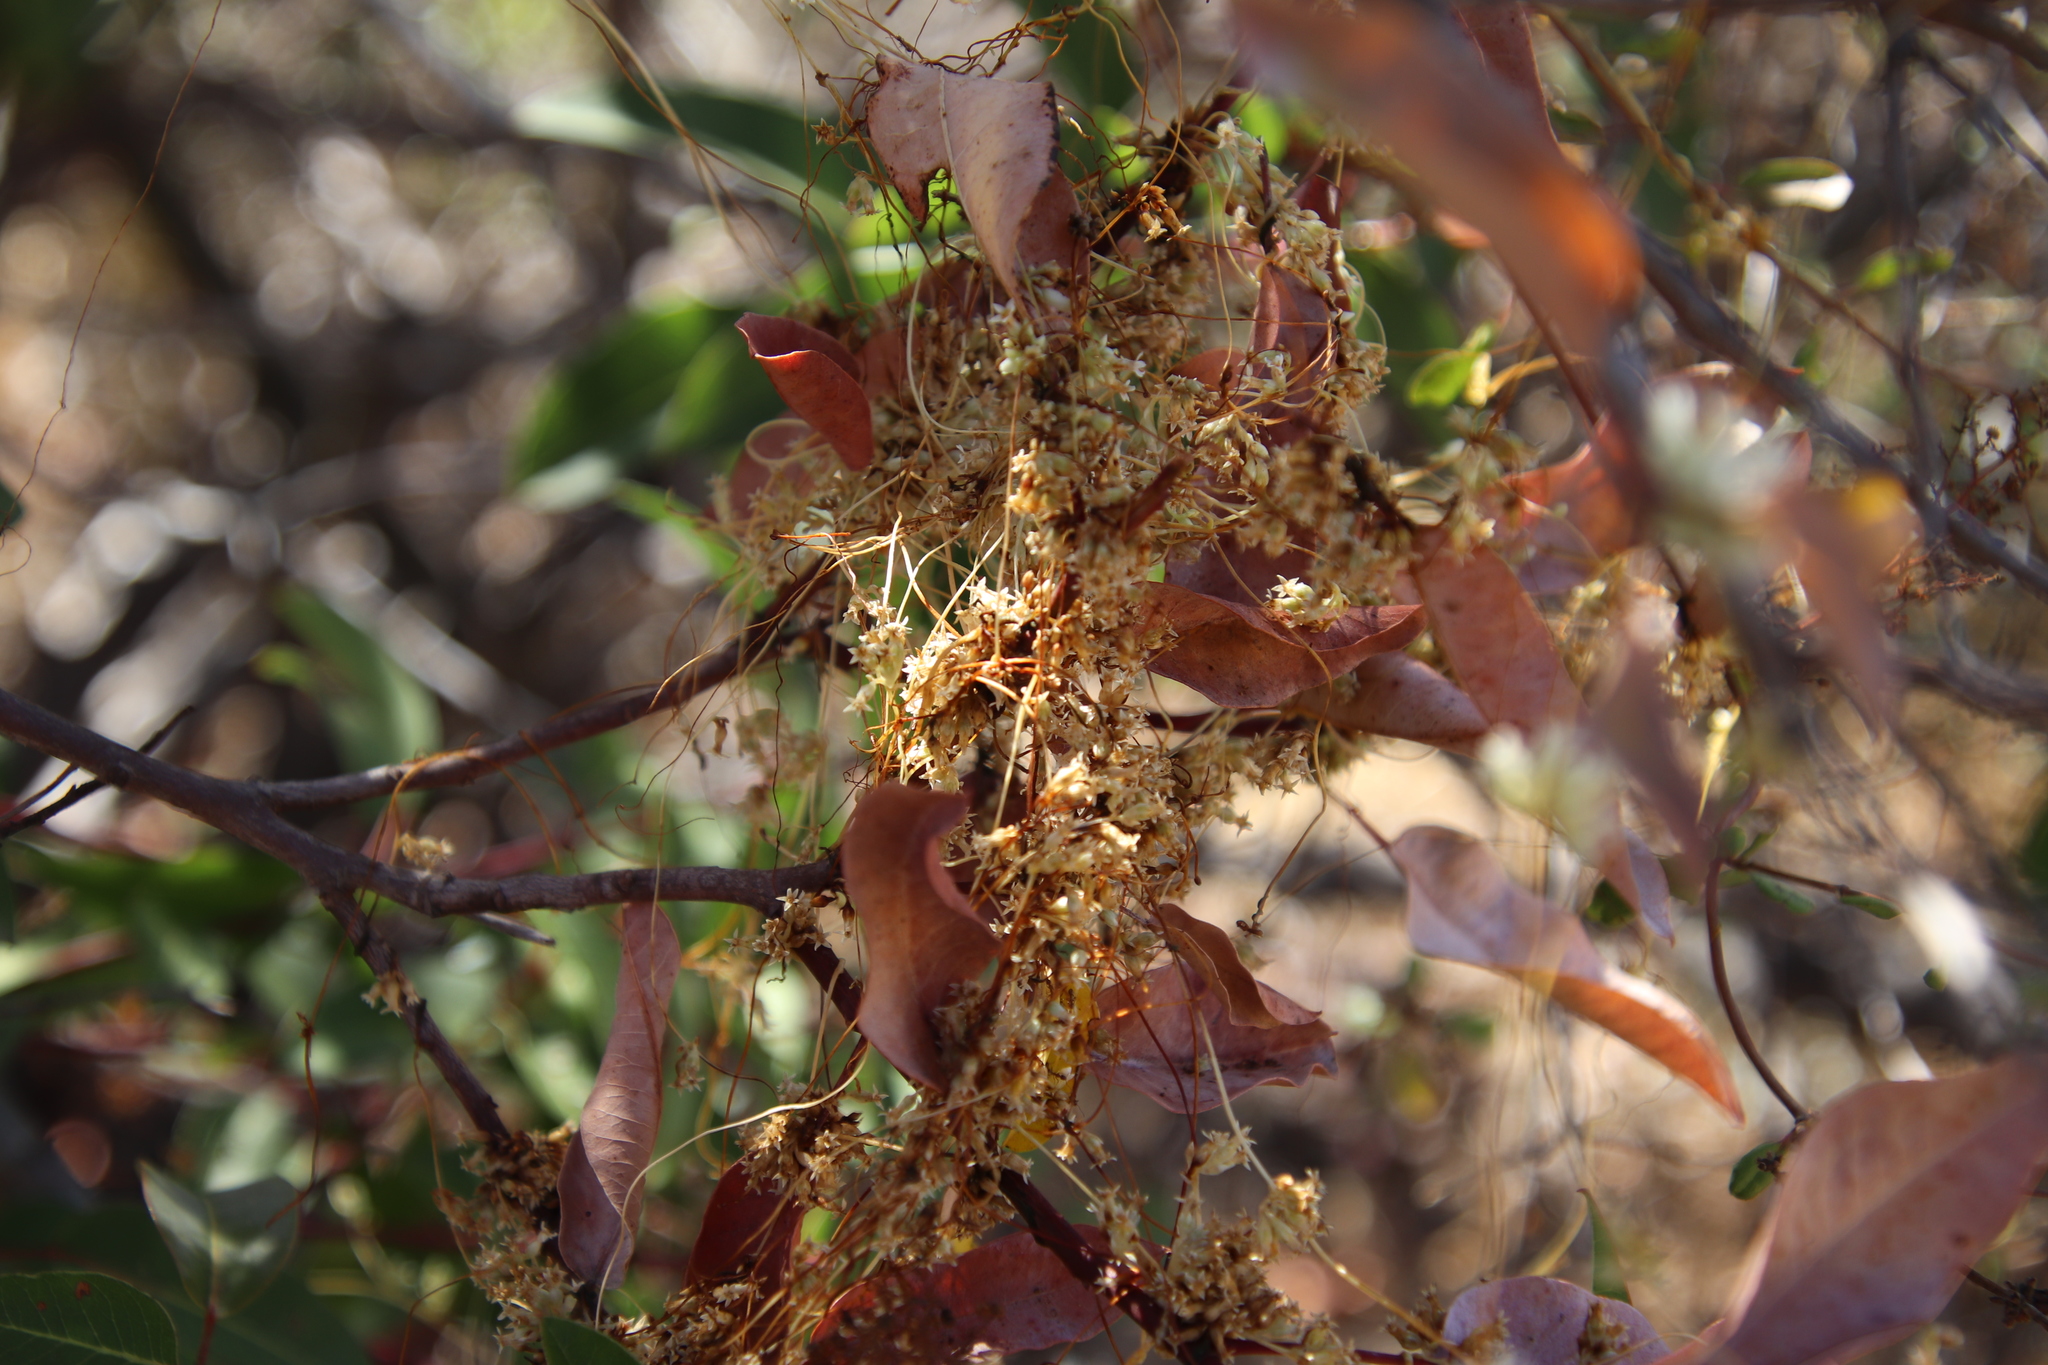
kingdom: Plantae
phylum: Tracheophyta
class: Magnoliopsida
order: Solanales
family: Convolvulaceae
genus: Cuscuta
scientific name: Cuscuta subinclusa
